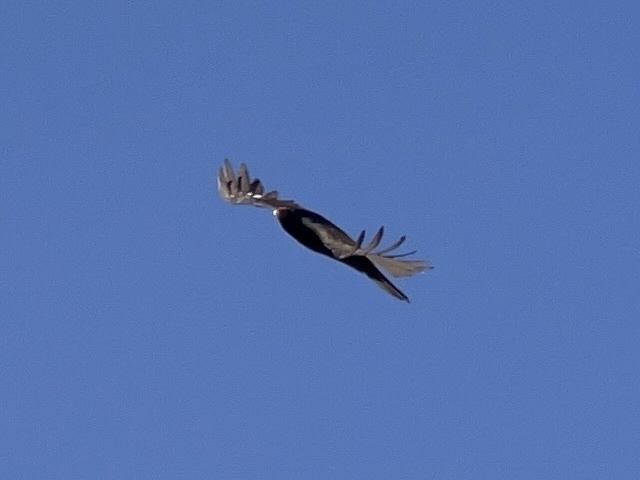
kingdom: Animalia
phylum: Chordata
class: Aves
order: Accipitriformes
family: Cathartidae
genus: Cathartes
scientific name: Cathartes aura
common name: Turkey vulture
